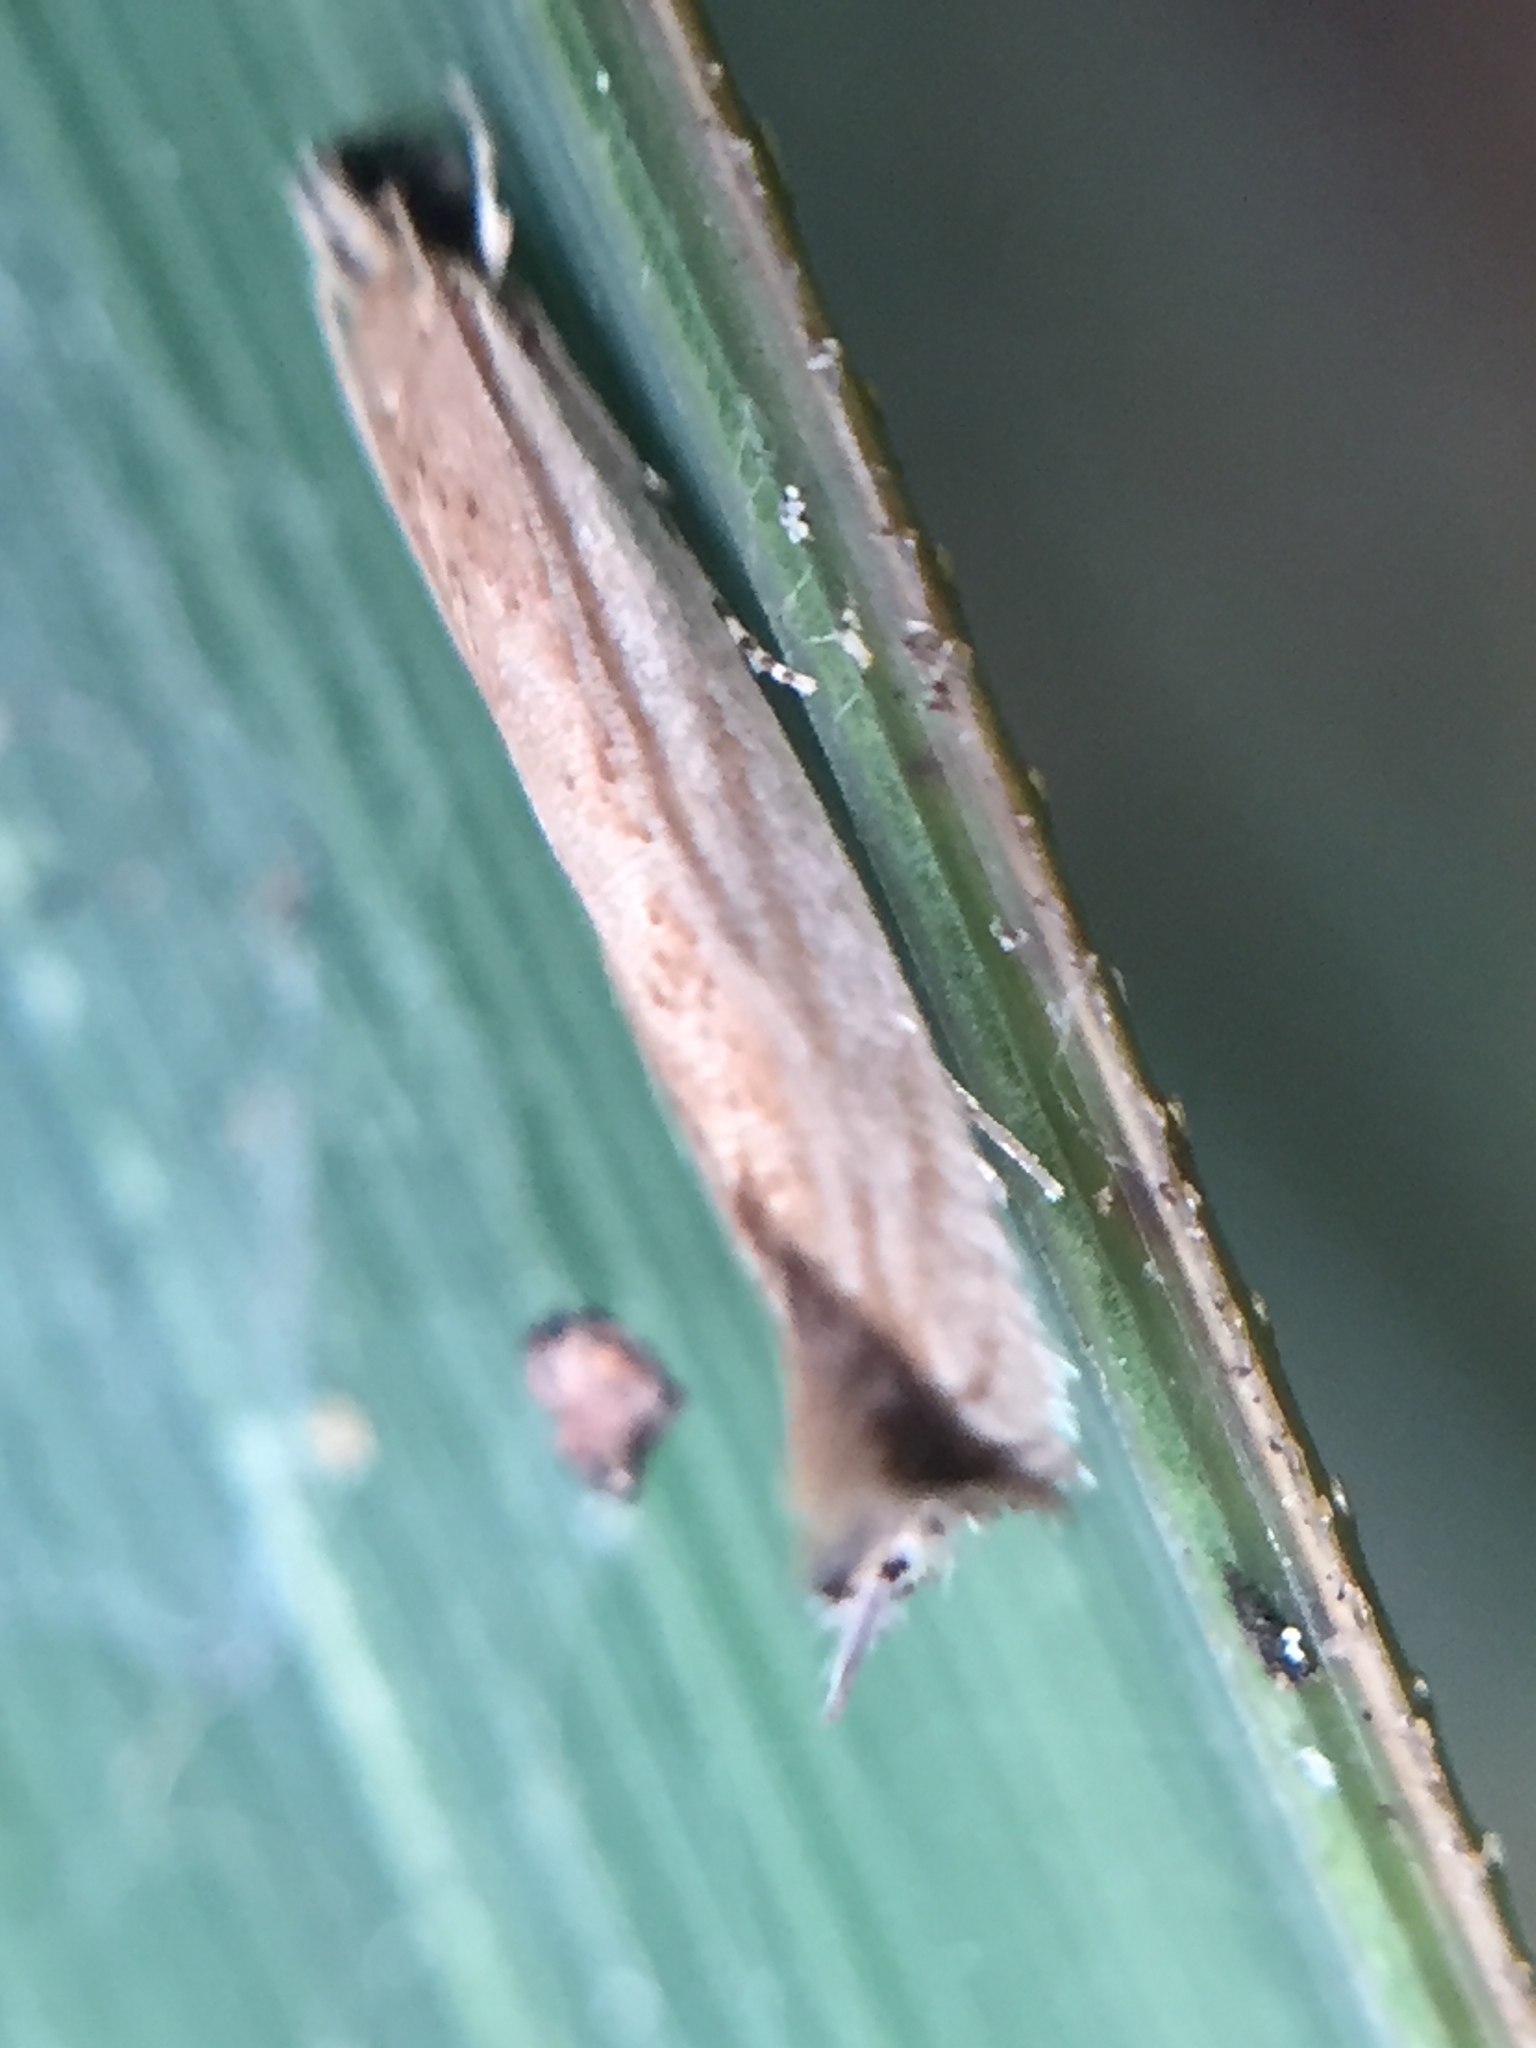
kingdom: Animalia
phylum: Arthropoda
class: Insecta
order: Lepidoptera
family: Tineidae
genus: Erechthias
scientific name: Erechthias exospila
